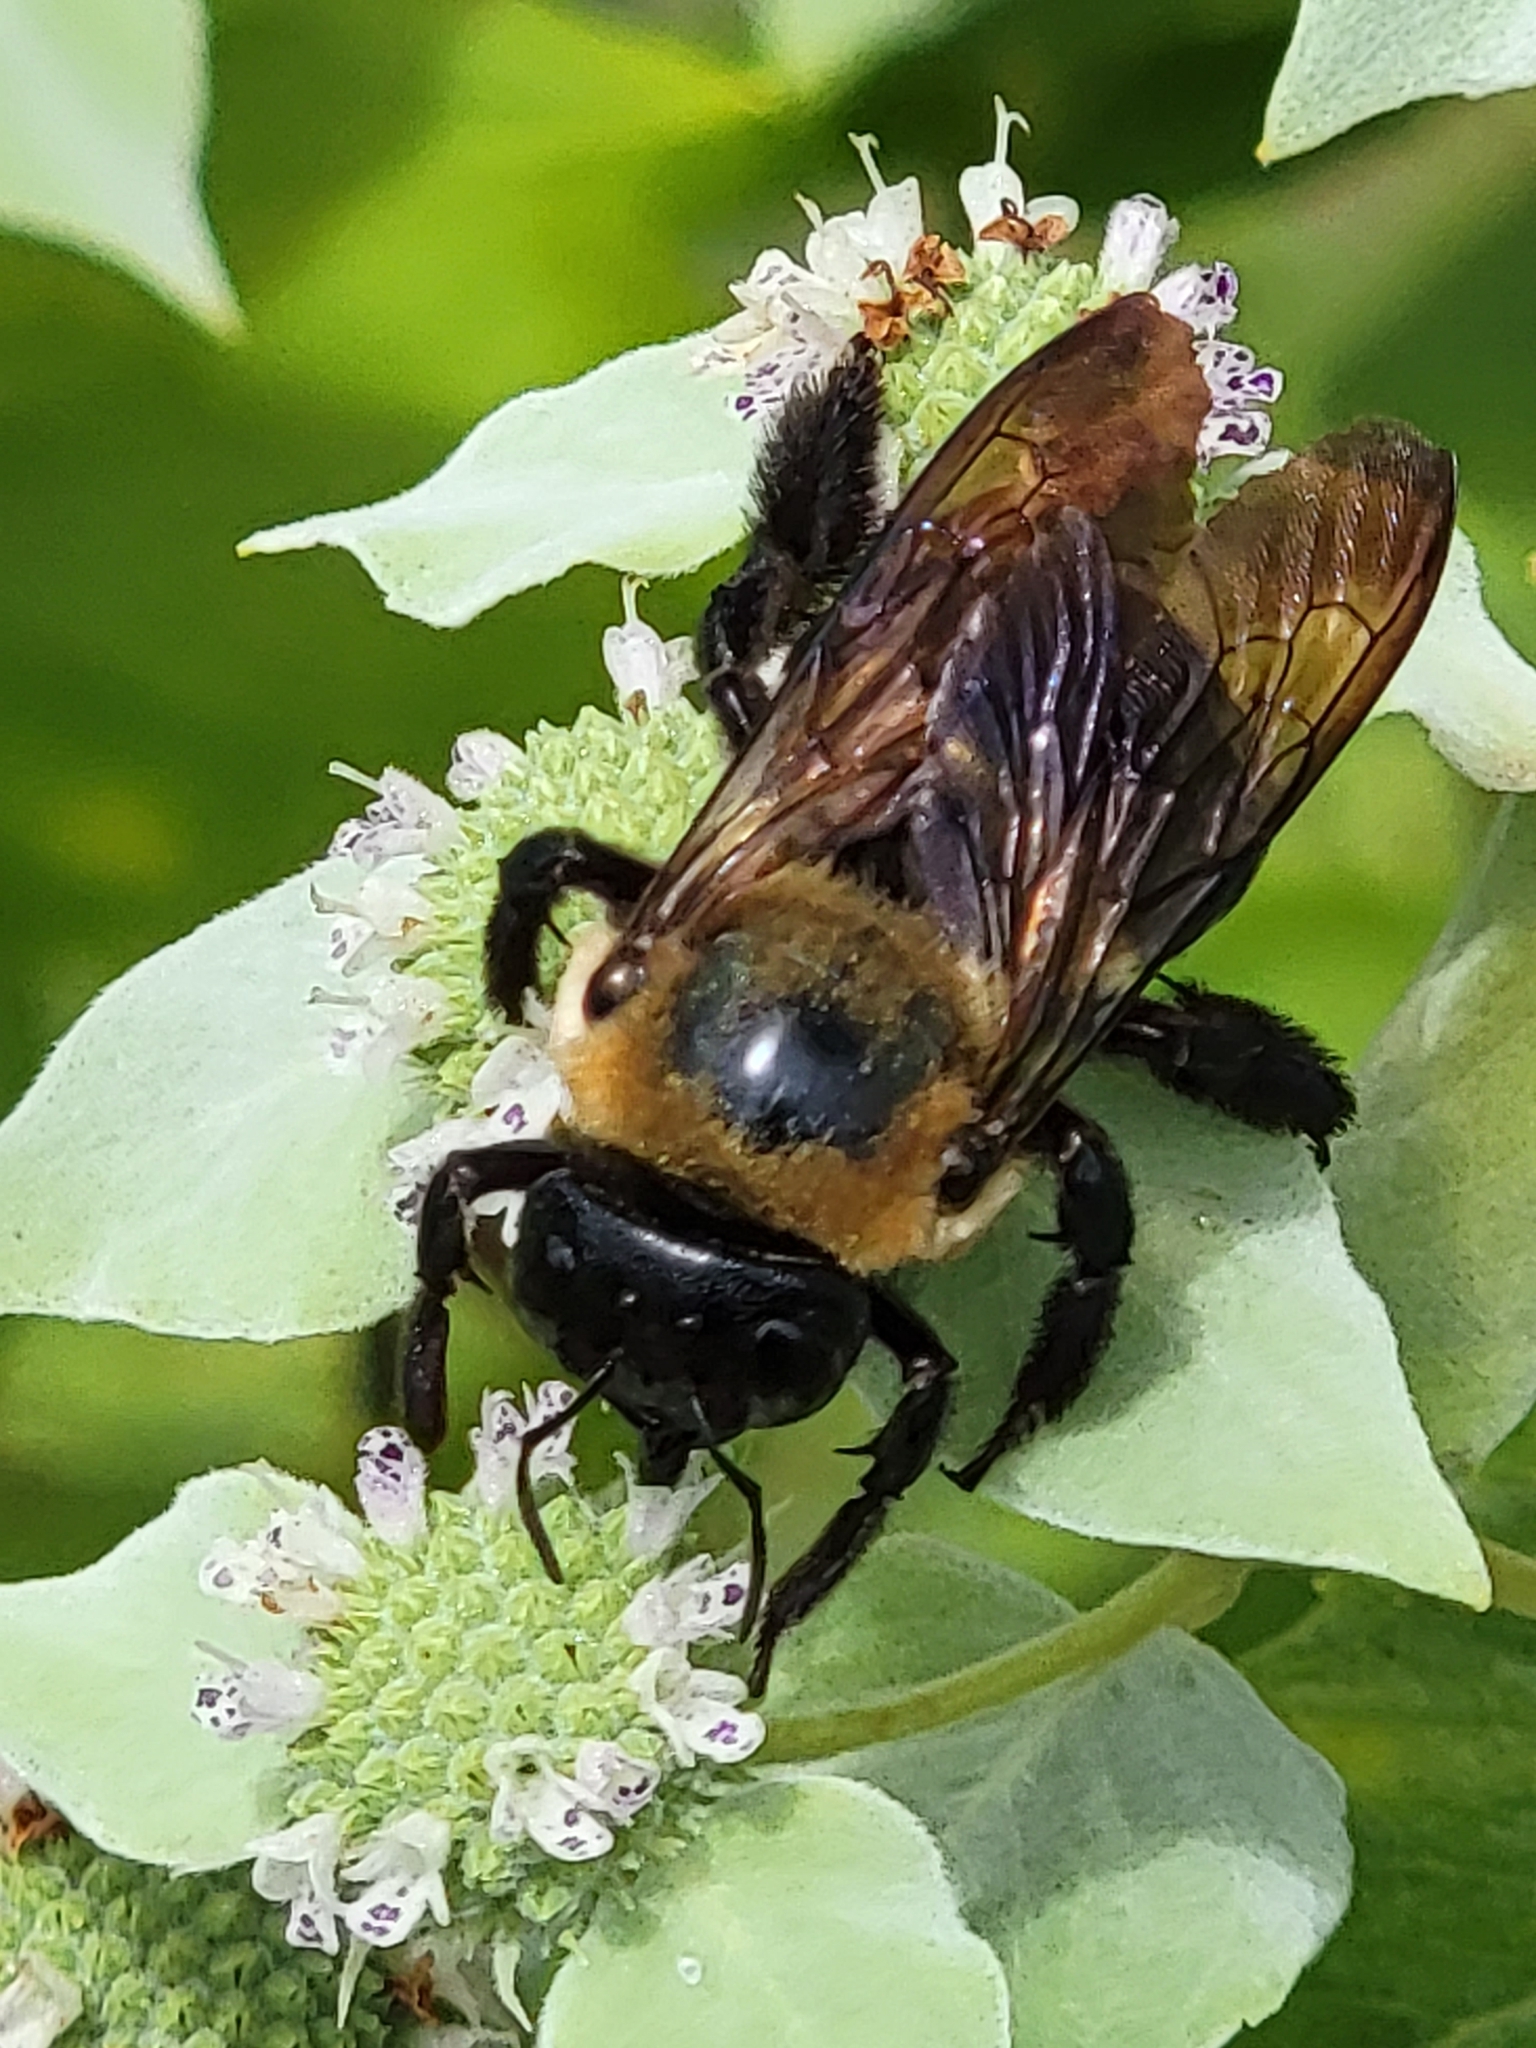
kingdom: Animalia
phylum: Arthropoda
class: Insecta
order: Hymenoptera
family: Apidae
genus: Xylocopa
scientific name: Xylocopa virginica
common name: Carpenter bee
